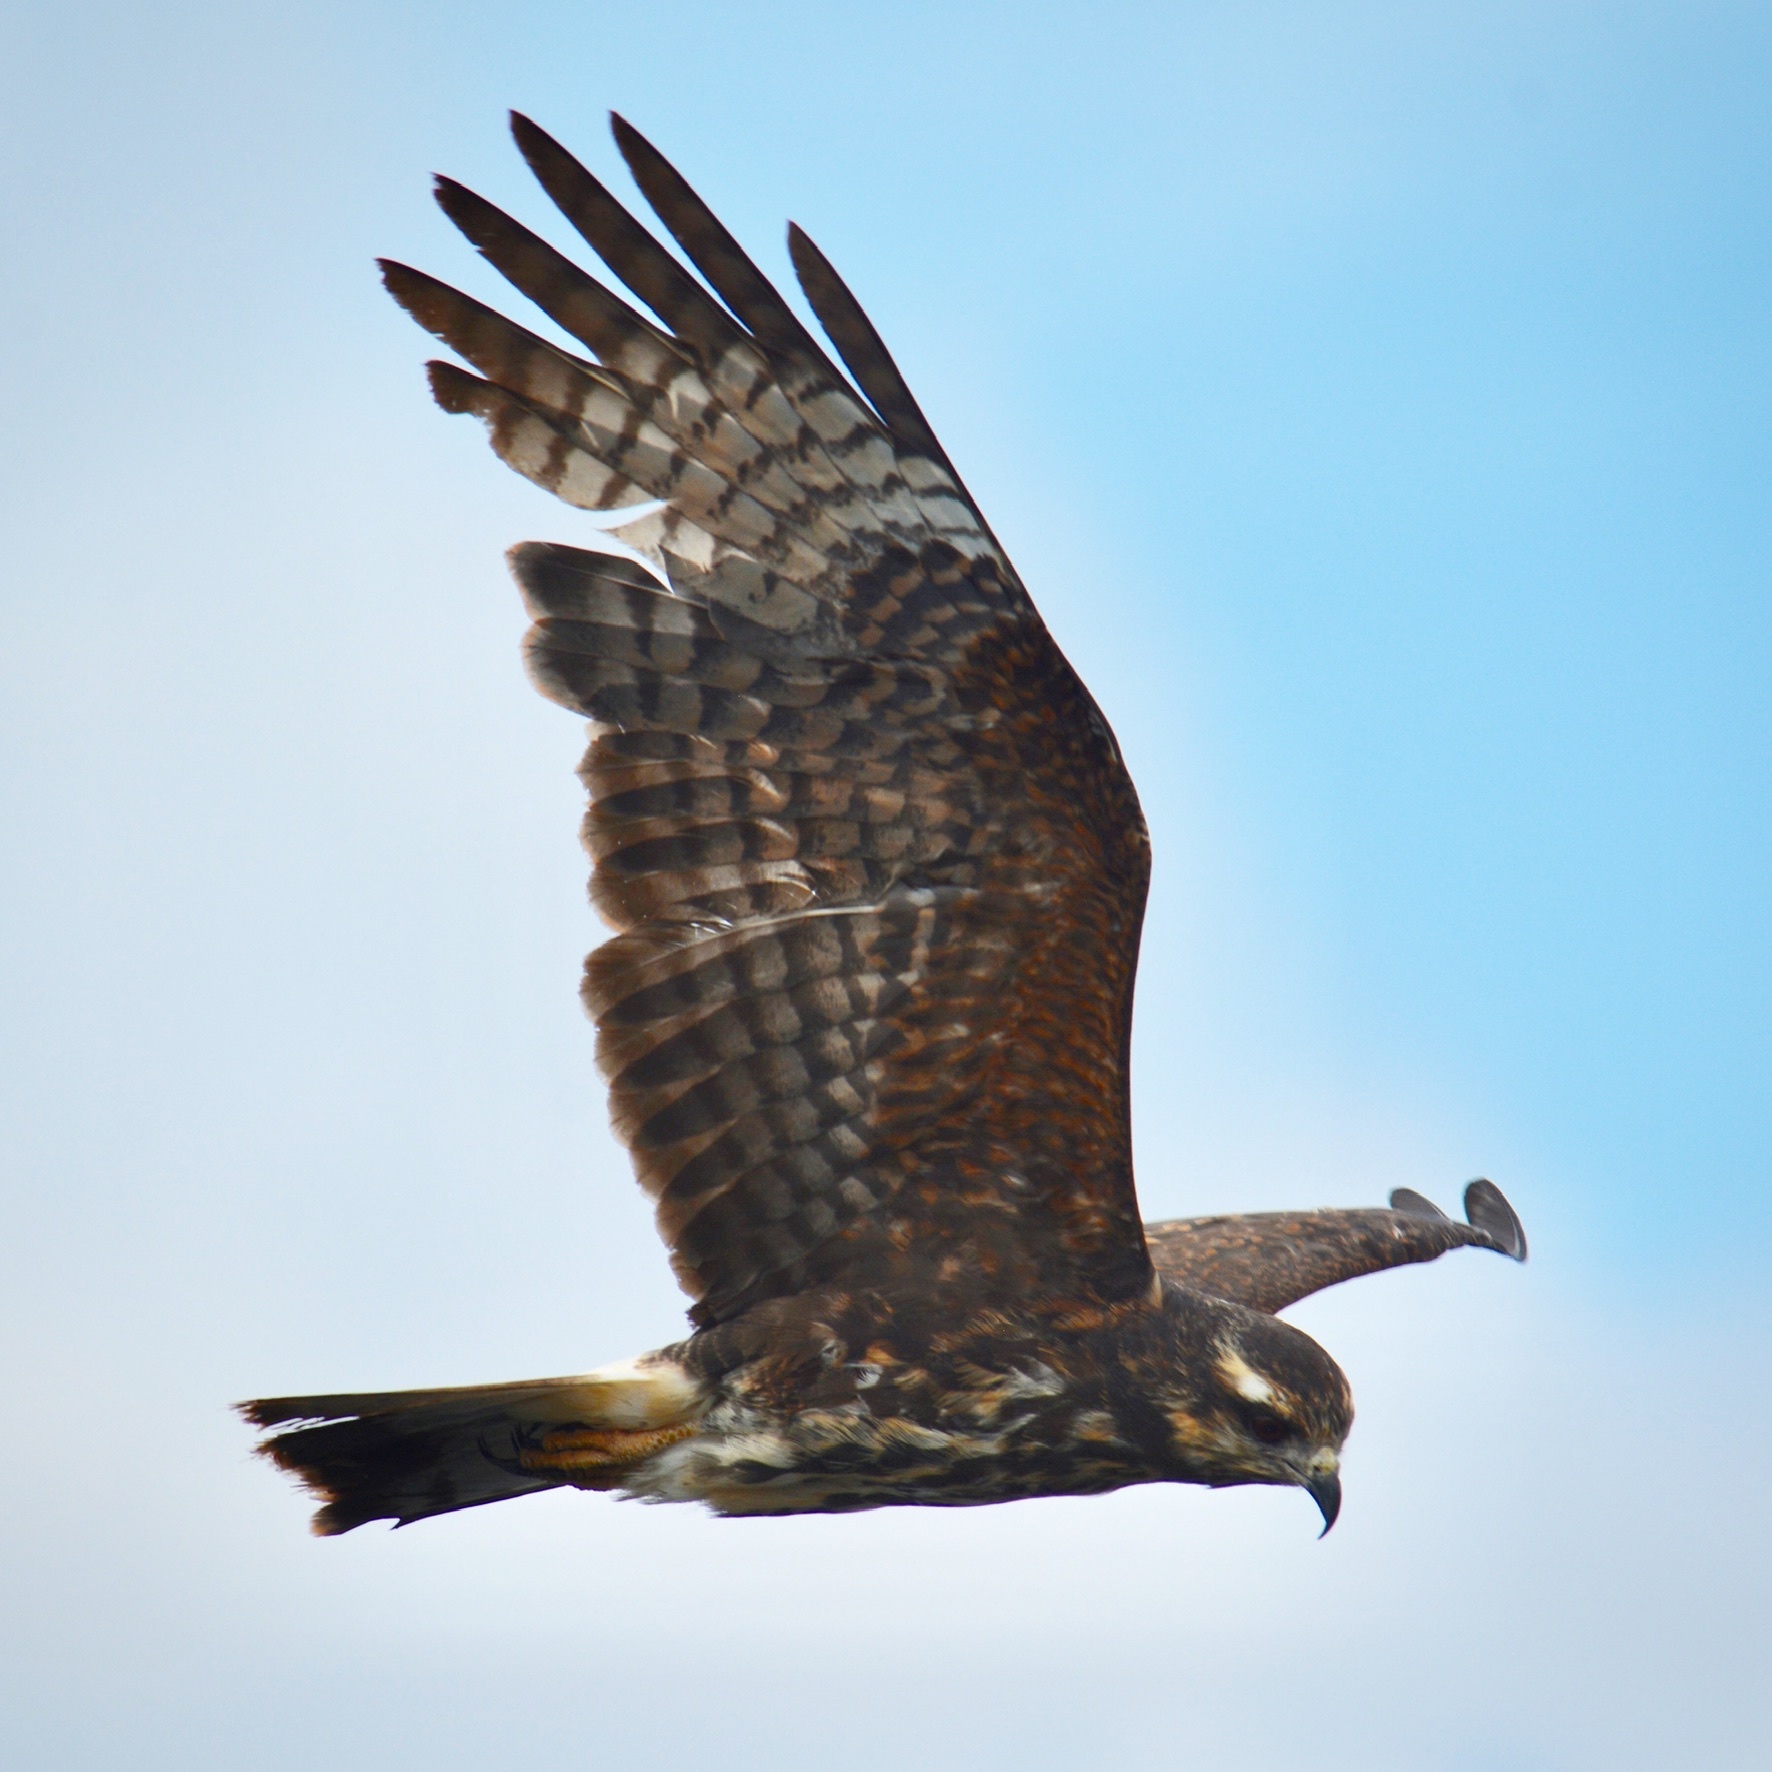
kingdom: Animalia
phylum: Chordata
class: Aves
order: Accipitriformes
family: Accipitridae
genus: Rostrhamus
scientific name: Rostrhamus sociabilis
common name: Snail kite
